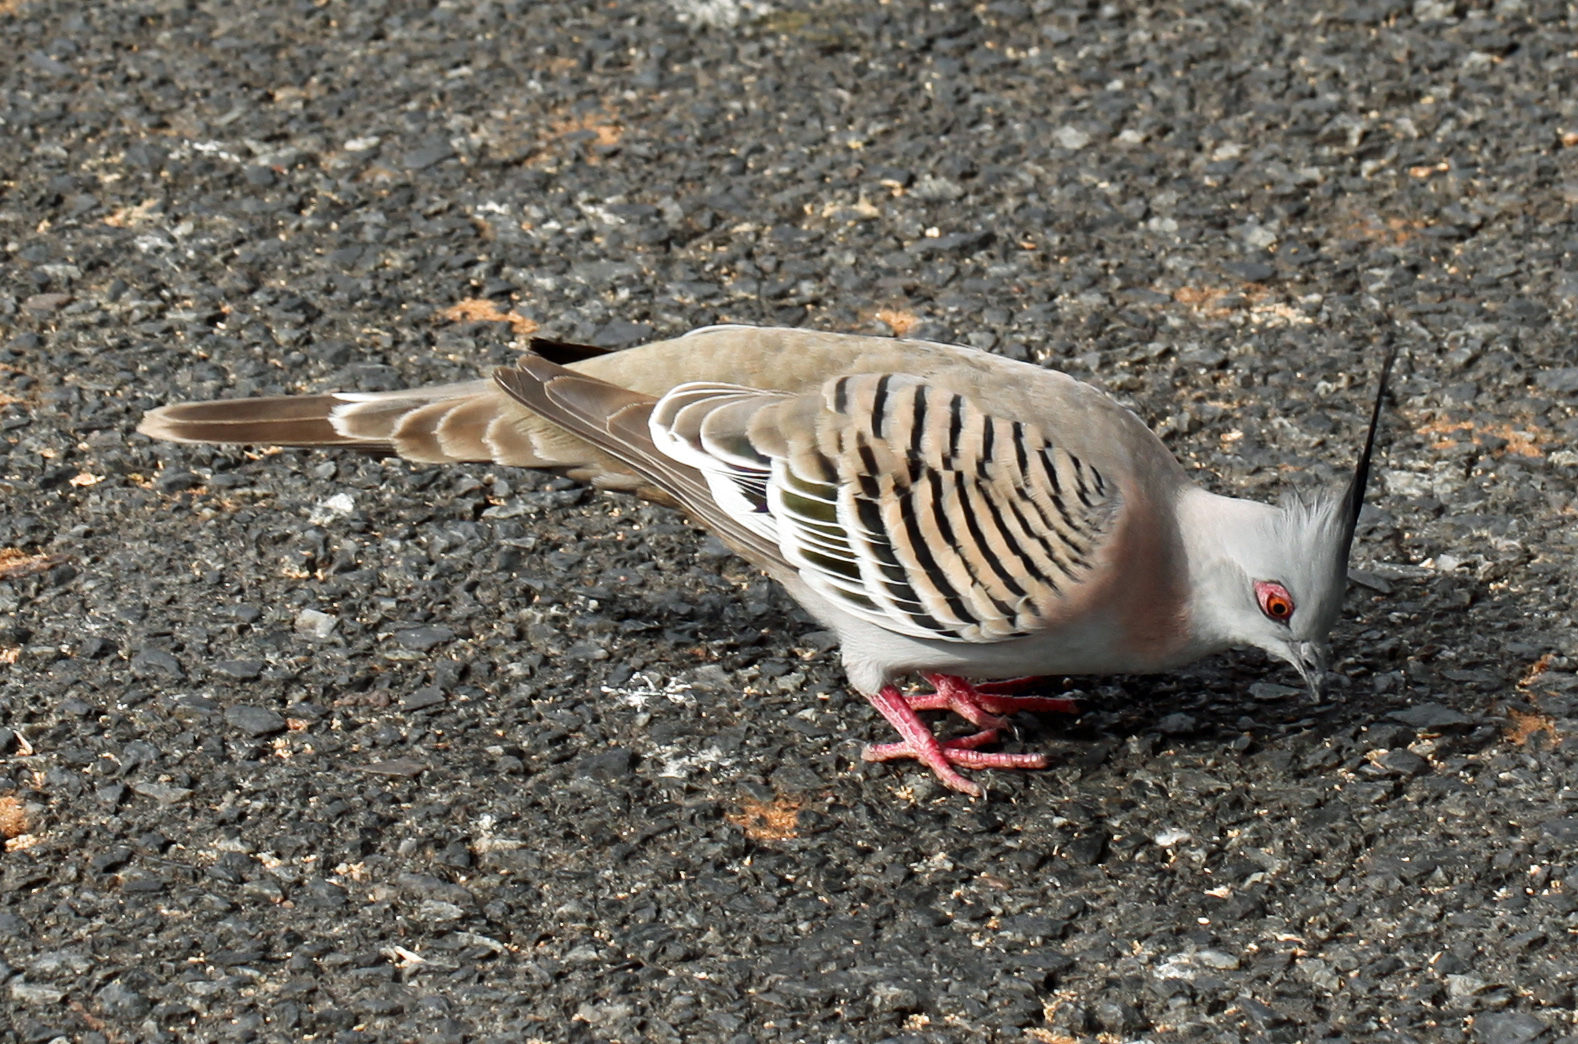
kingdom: Animalia
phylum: Chordata
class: Aves
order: Columbiformes
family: Columbidae
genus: Ocyphaps
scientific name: Ocyphaps lophotes
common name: Crested pigeon
